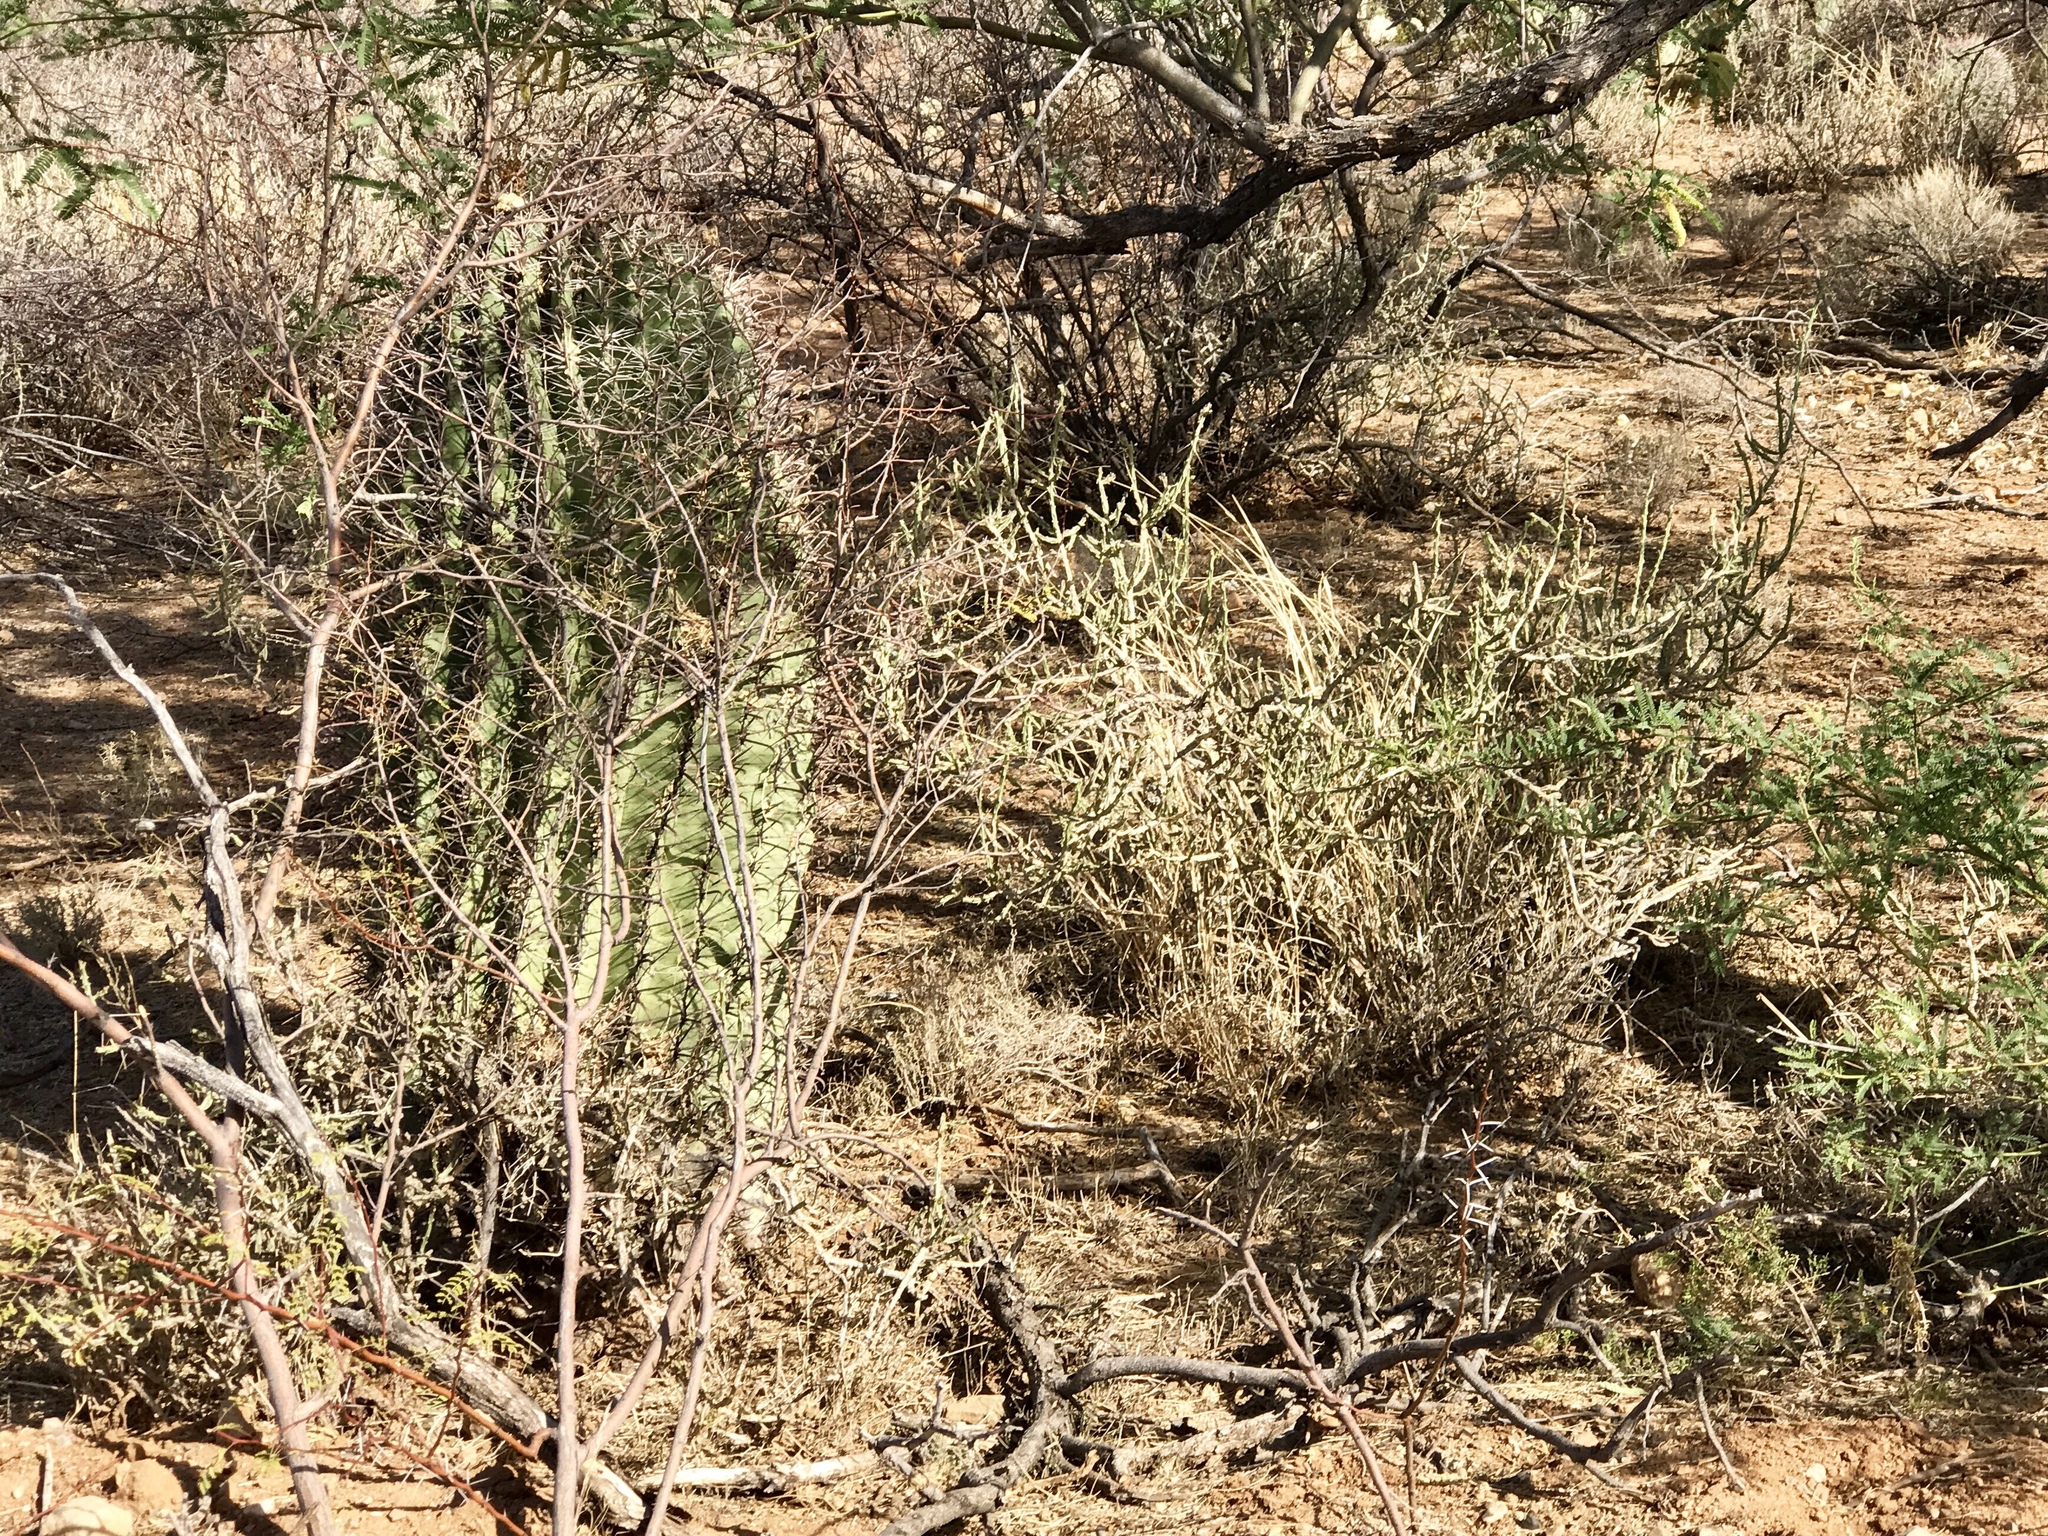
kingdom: Plantae
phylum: Tracheophyta
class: Magnoliopsida
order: Caryophyllales
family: Cactaceae
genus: Cylindropuntia
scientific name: Cylindropuntia leptocaulis
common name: Christmas cactus
